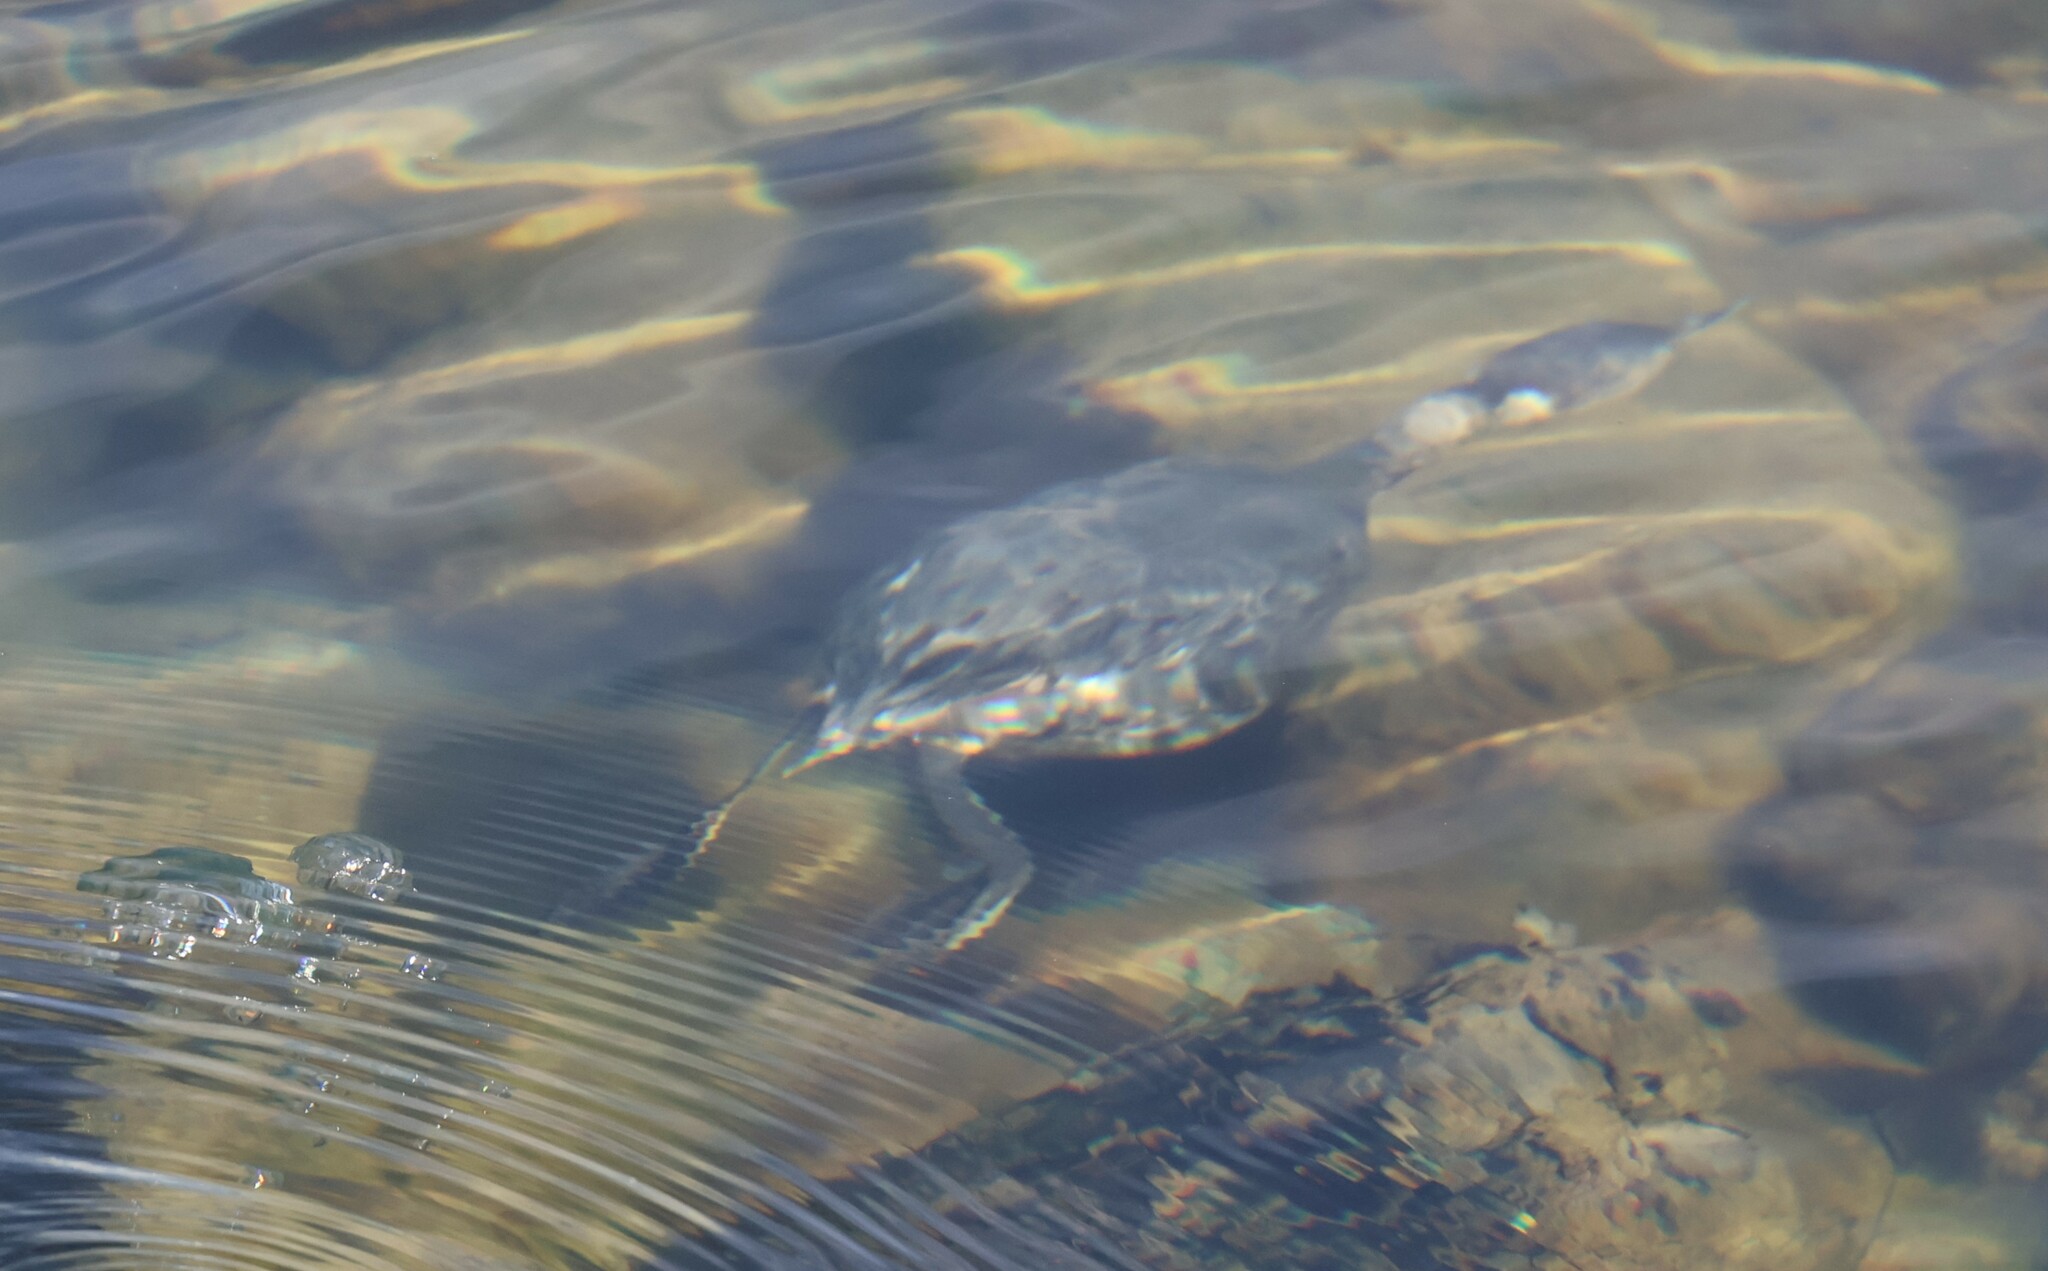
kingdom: Animalia
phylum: Chordata
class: Aves
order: Podicipediformes
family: Podicipedidae
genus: Podiceps
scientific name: Podiceps nigricollis
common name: Black-necked grebe
